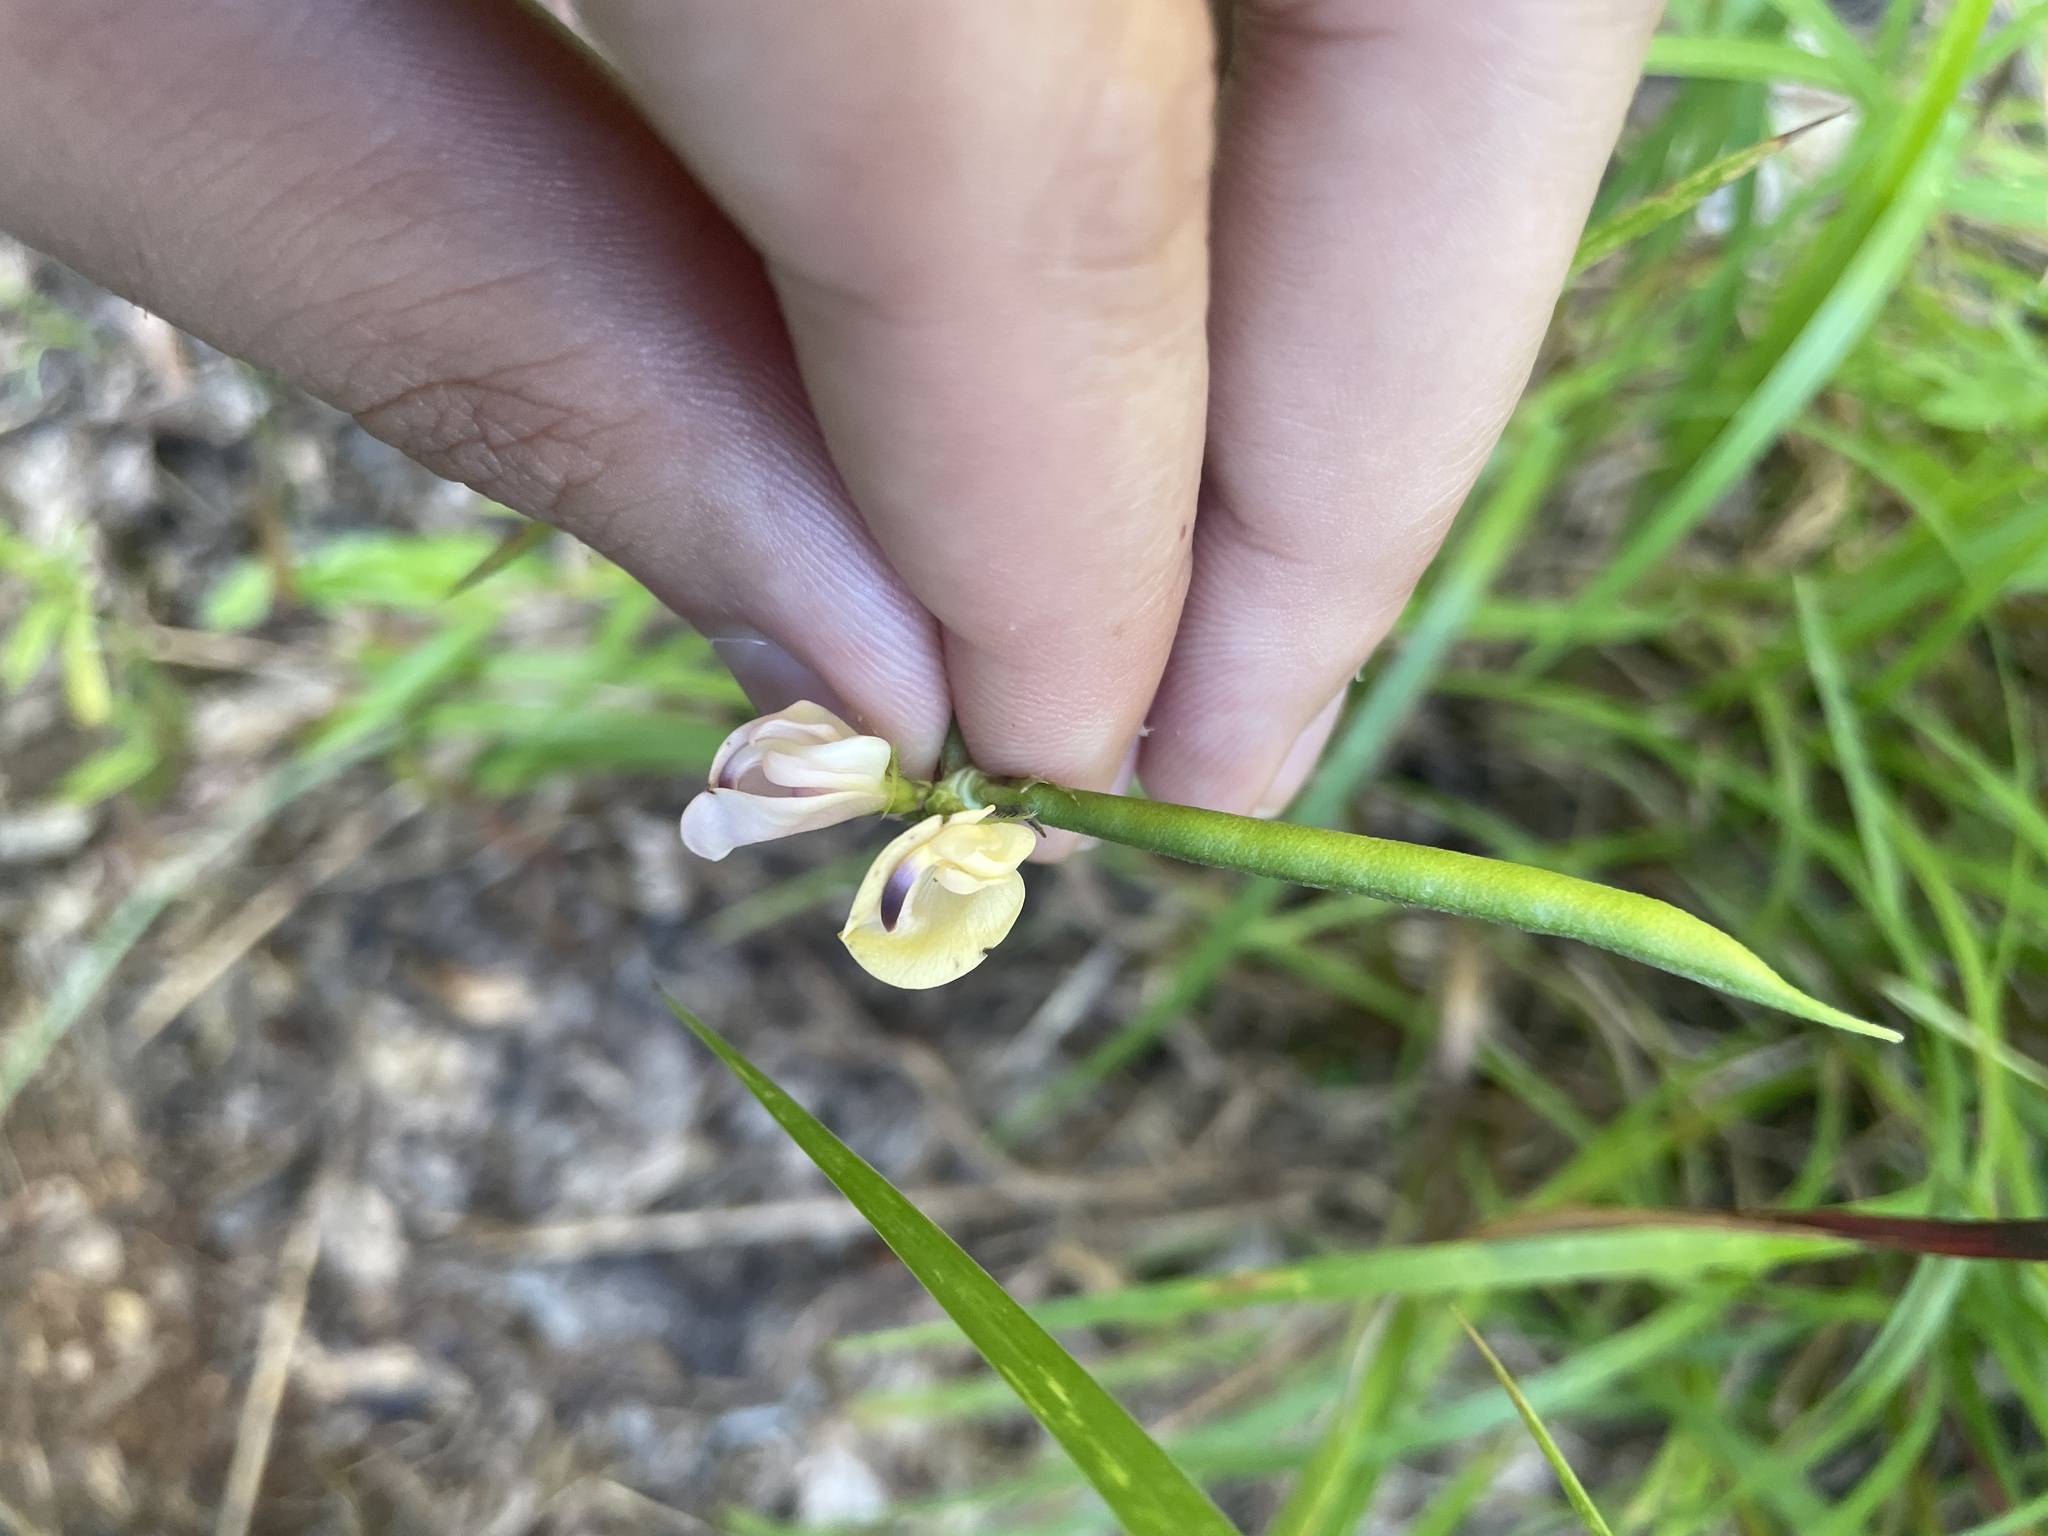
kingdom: Plantae
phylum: Tracheophyta
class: Magnoliopsida
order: Fabales
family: Fabaceae
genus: Strophostyles
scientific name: Strophostyles helvola
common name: Trailing wild bean
